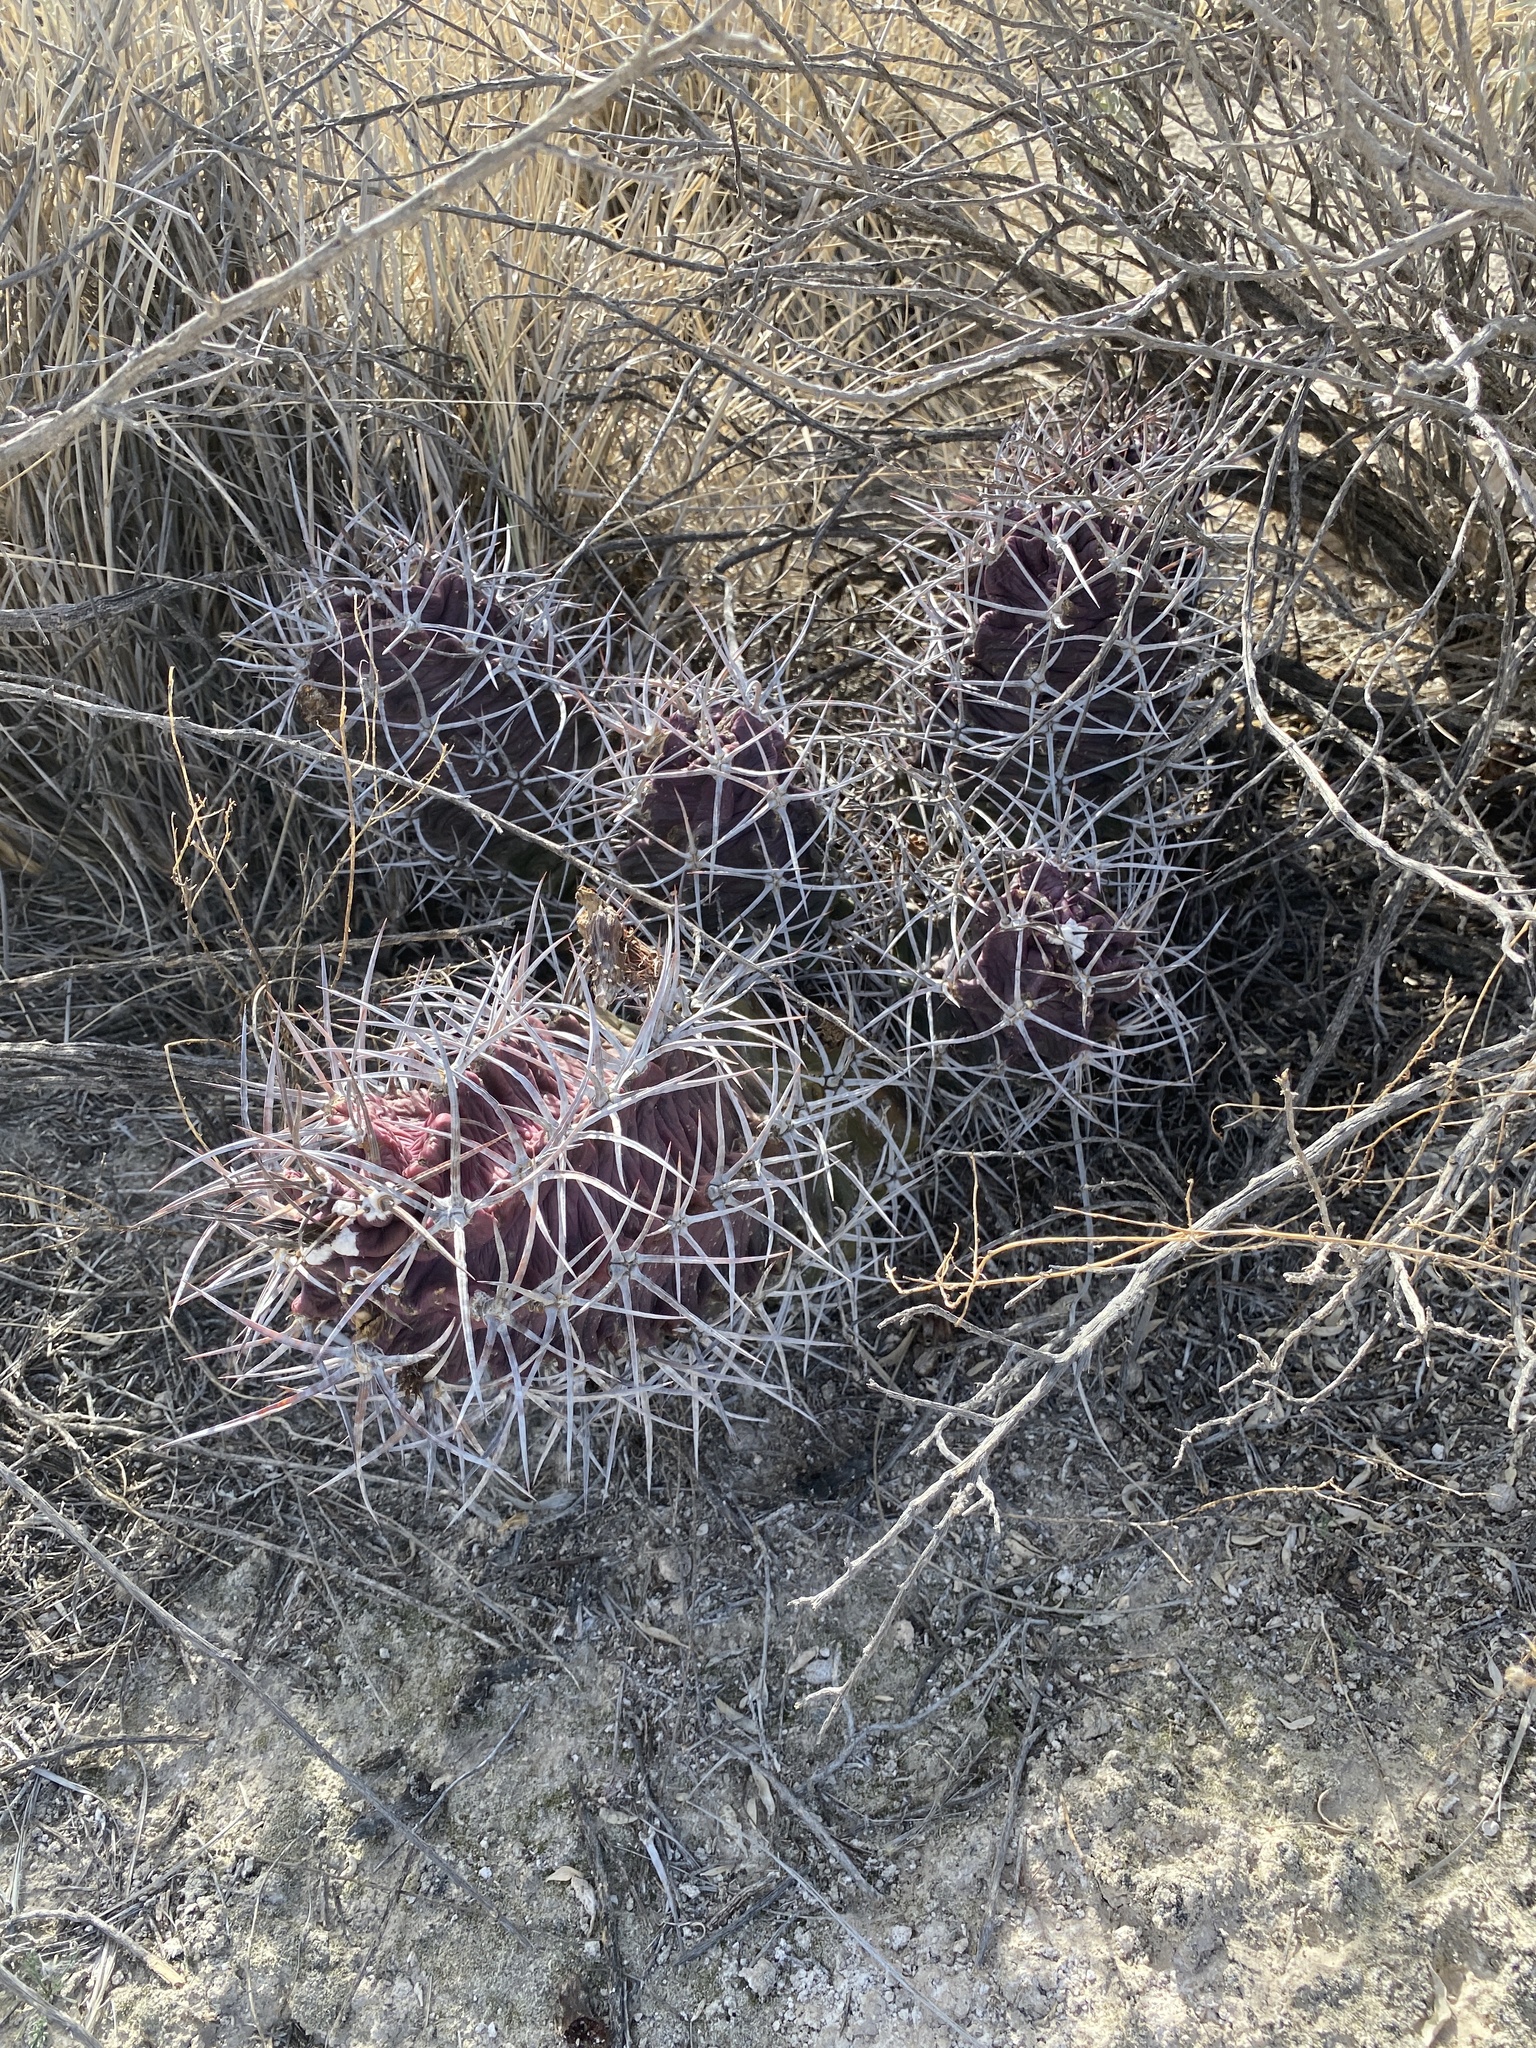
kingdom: Plantae
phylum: Tracheophyta
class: Magnoliopsida
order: Caryophyllales
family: Cactaceae
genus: Echinocereus
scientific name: Echinocereus triglochidiatus
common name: Claretcup hedgehog
